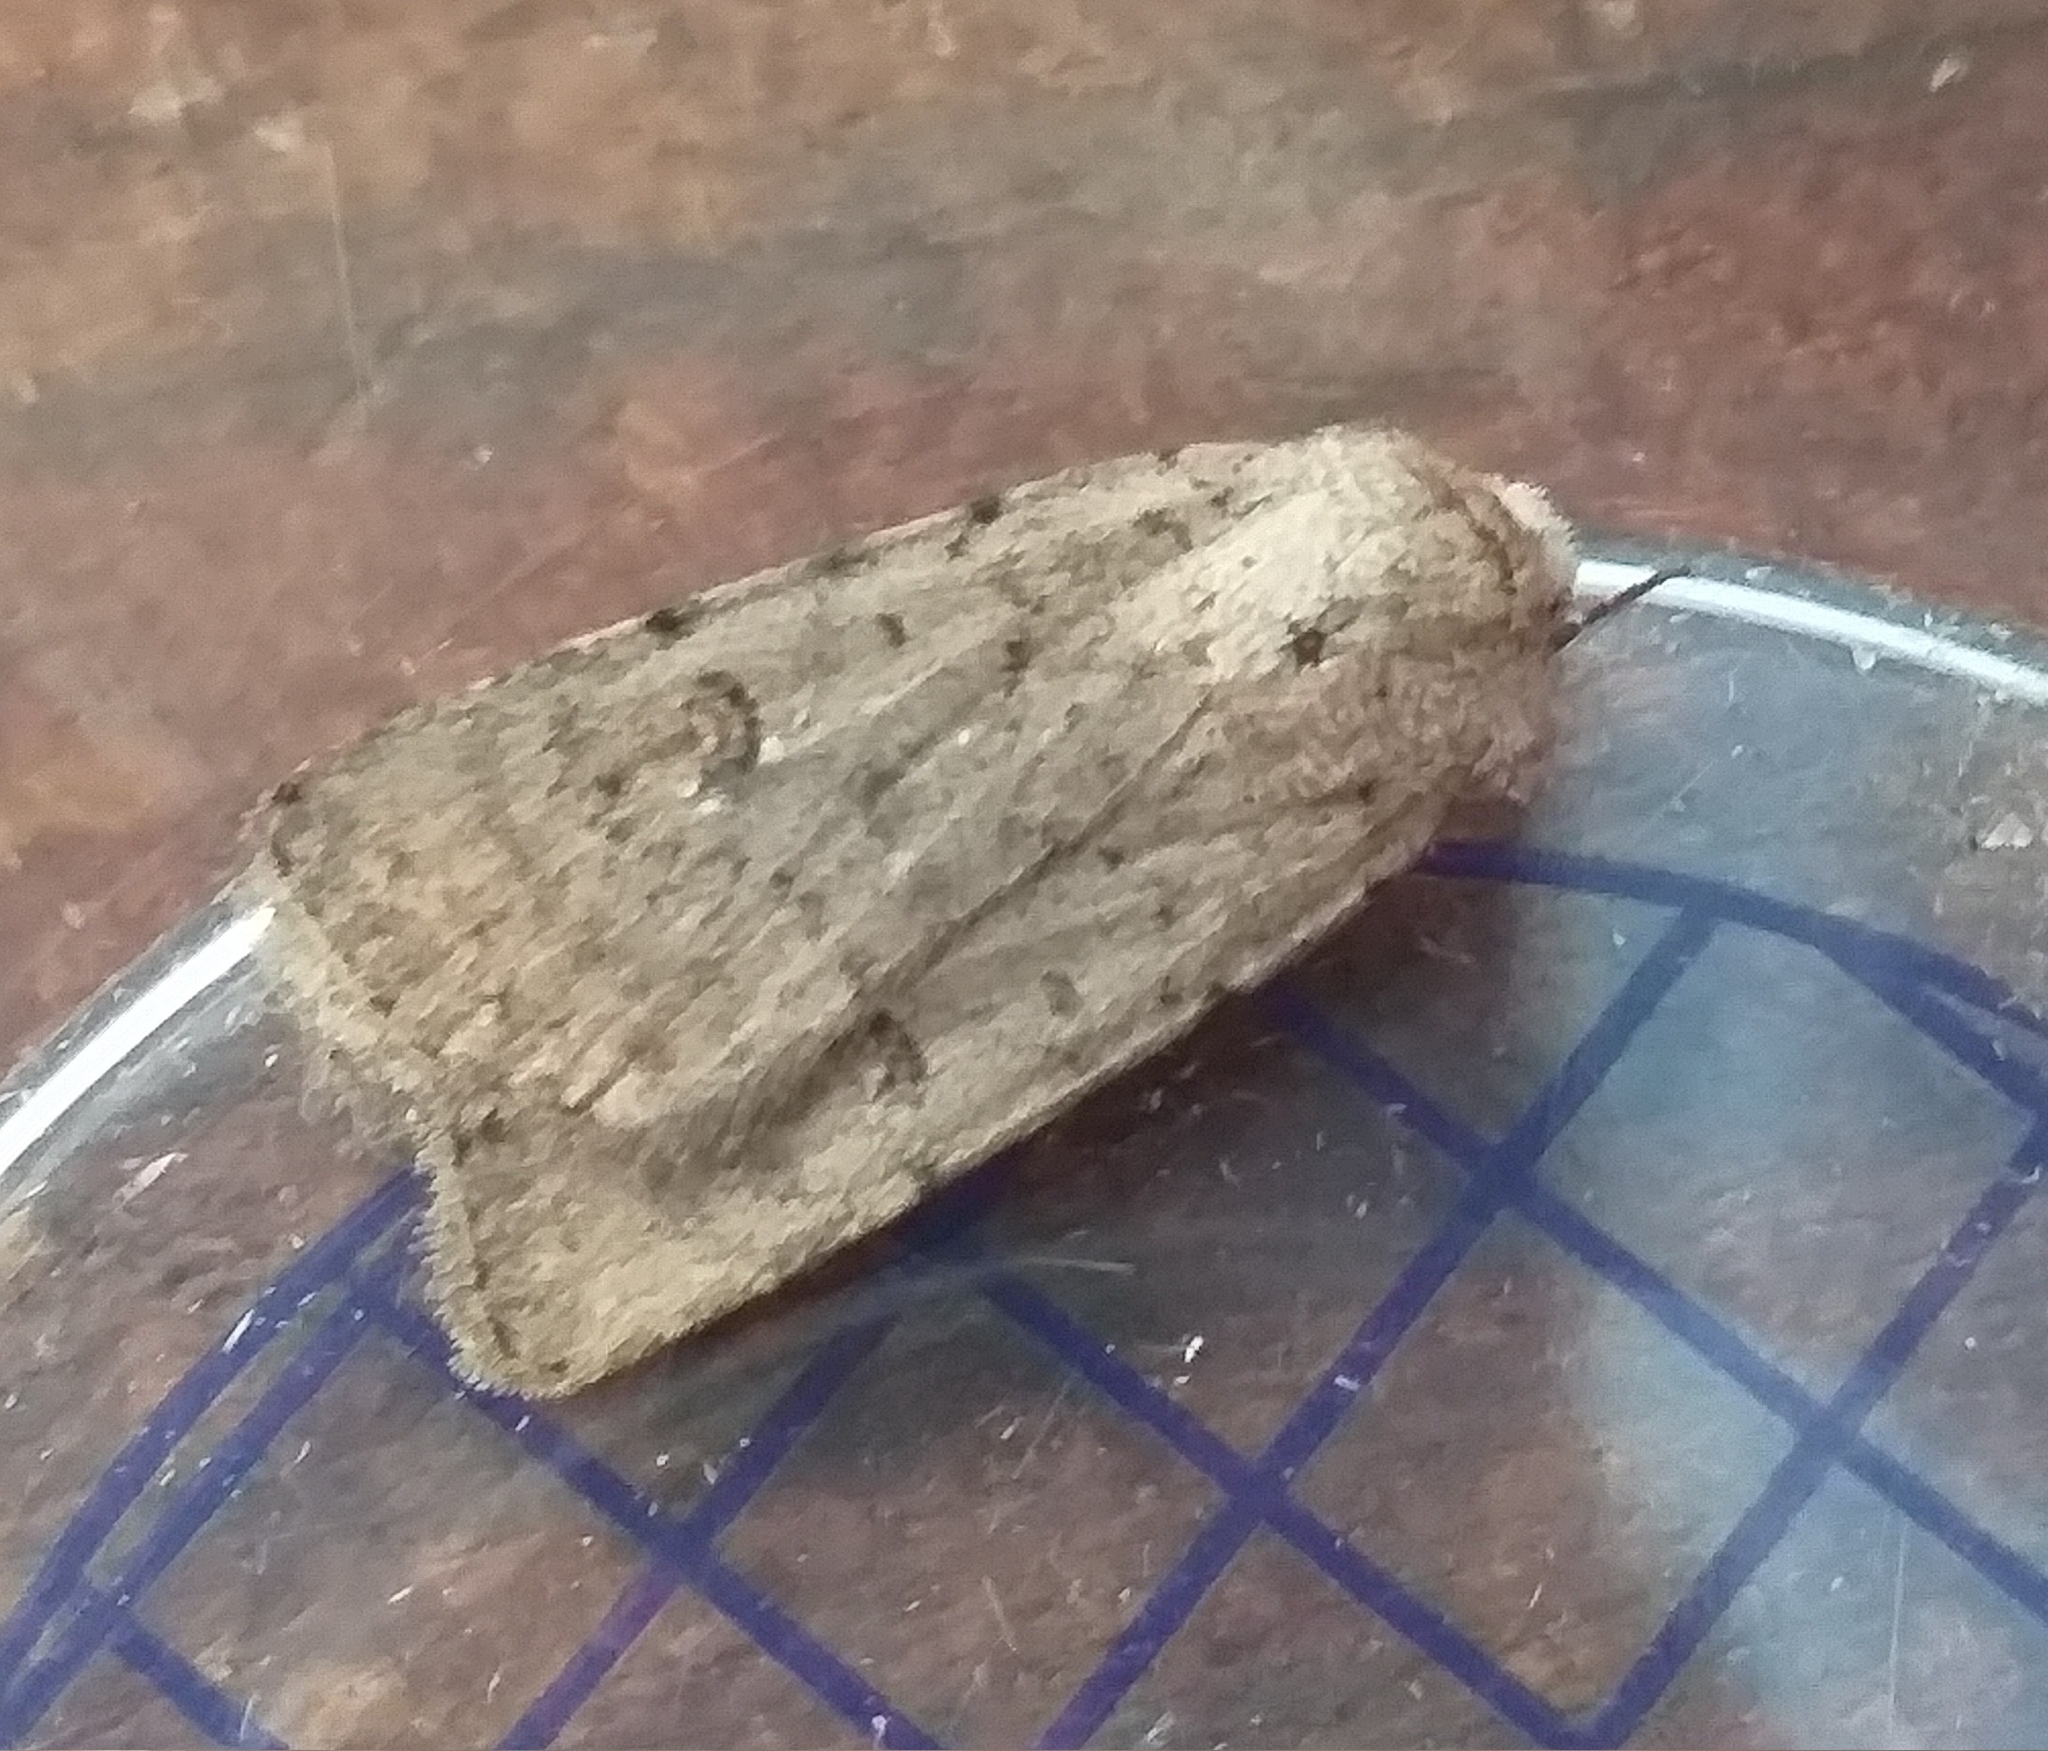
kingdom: Animalia
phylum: Arthropoda
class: Insecta
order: Lepidoptera
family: Noctuidae
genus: Caradrina
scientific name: Caradrina clavipalpis
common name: Pale mottled willow
